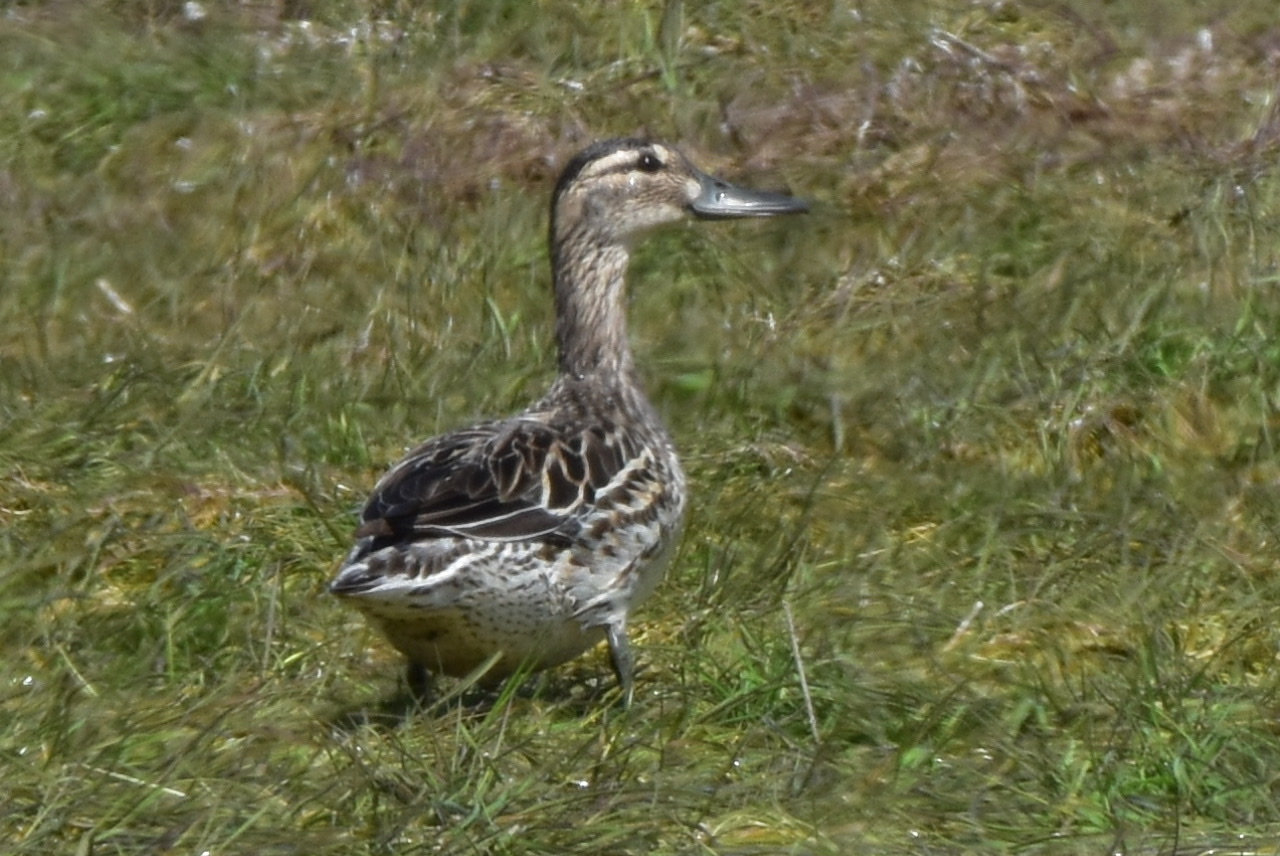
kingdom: Animalia
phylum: Chordata
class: Aves
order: Anseriformes
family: Anatidae
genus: Spatula
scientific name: Spatula querquedula
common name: Garganey
